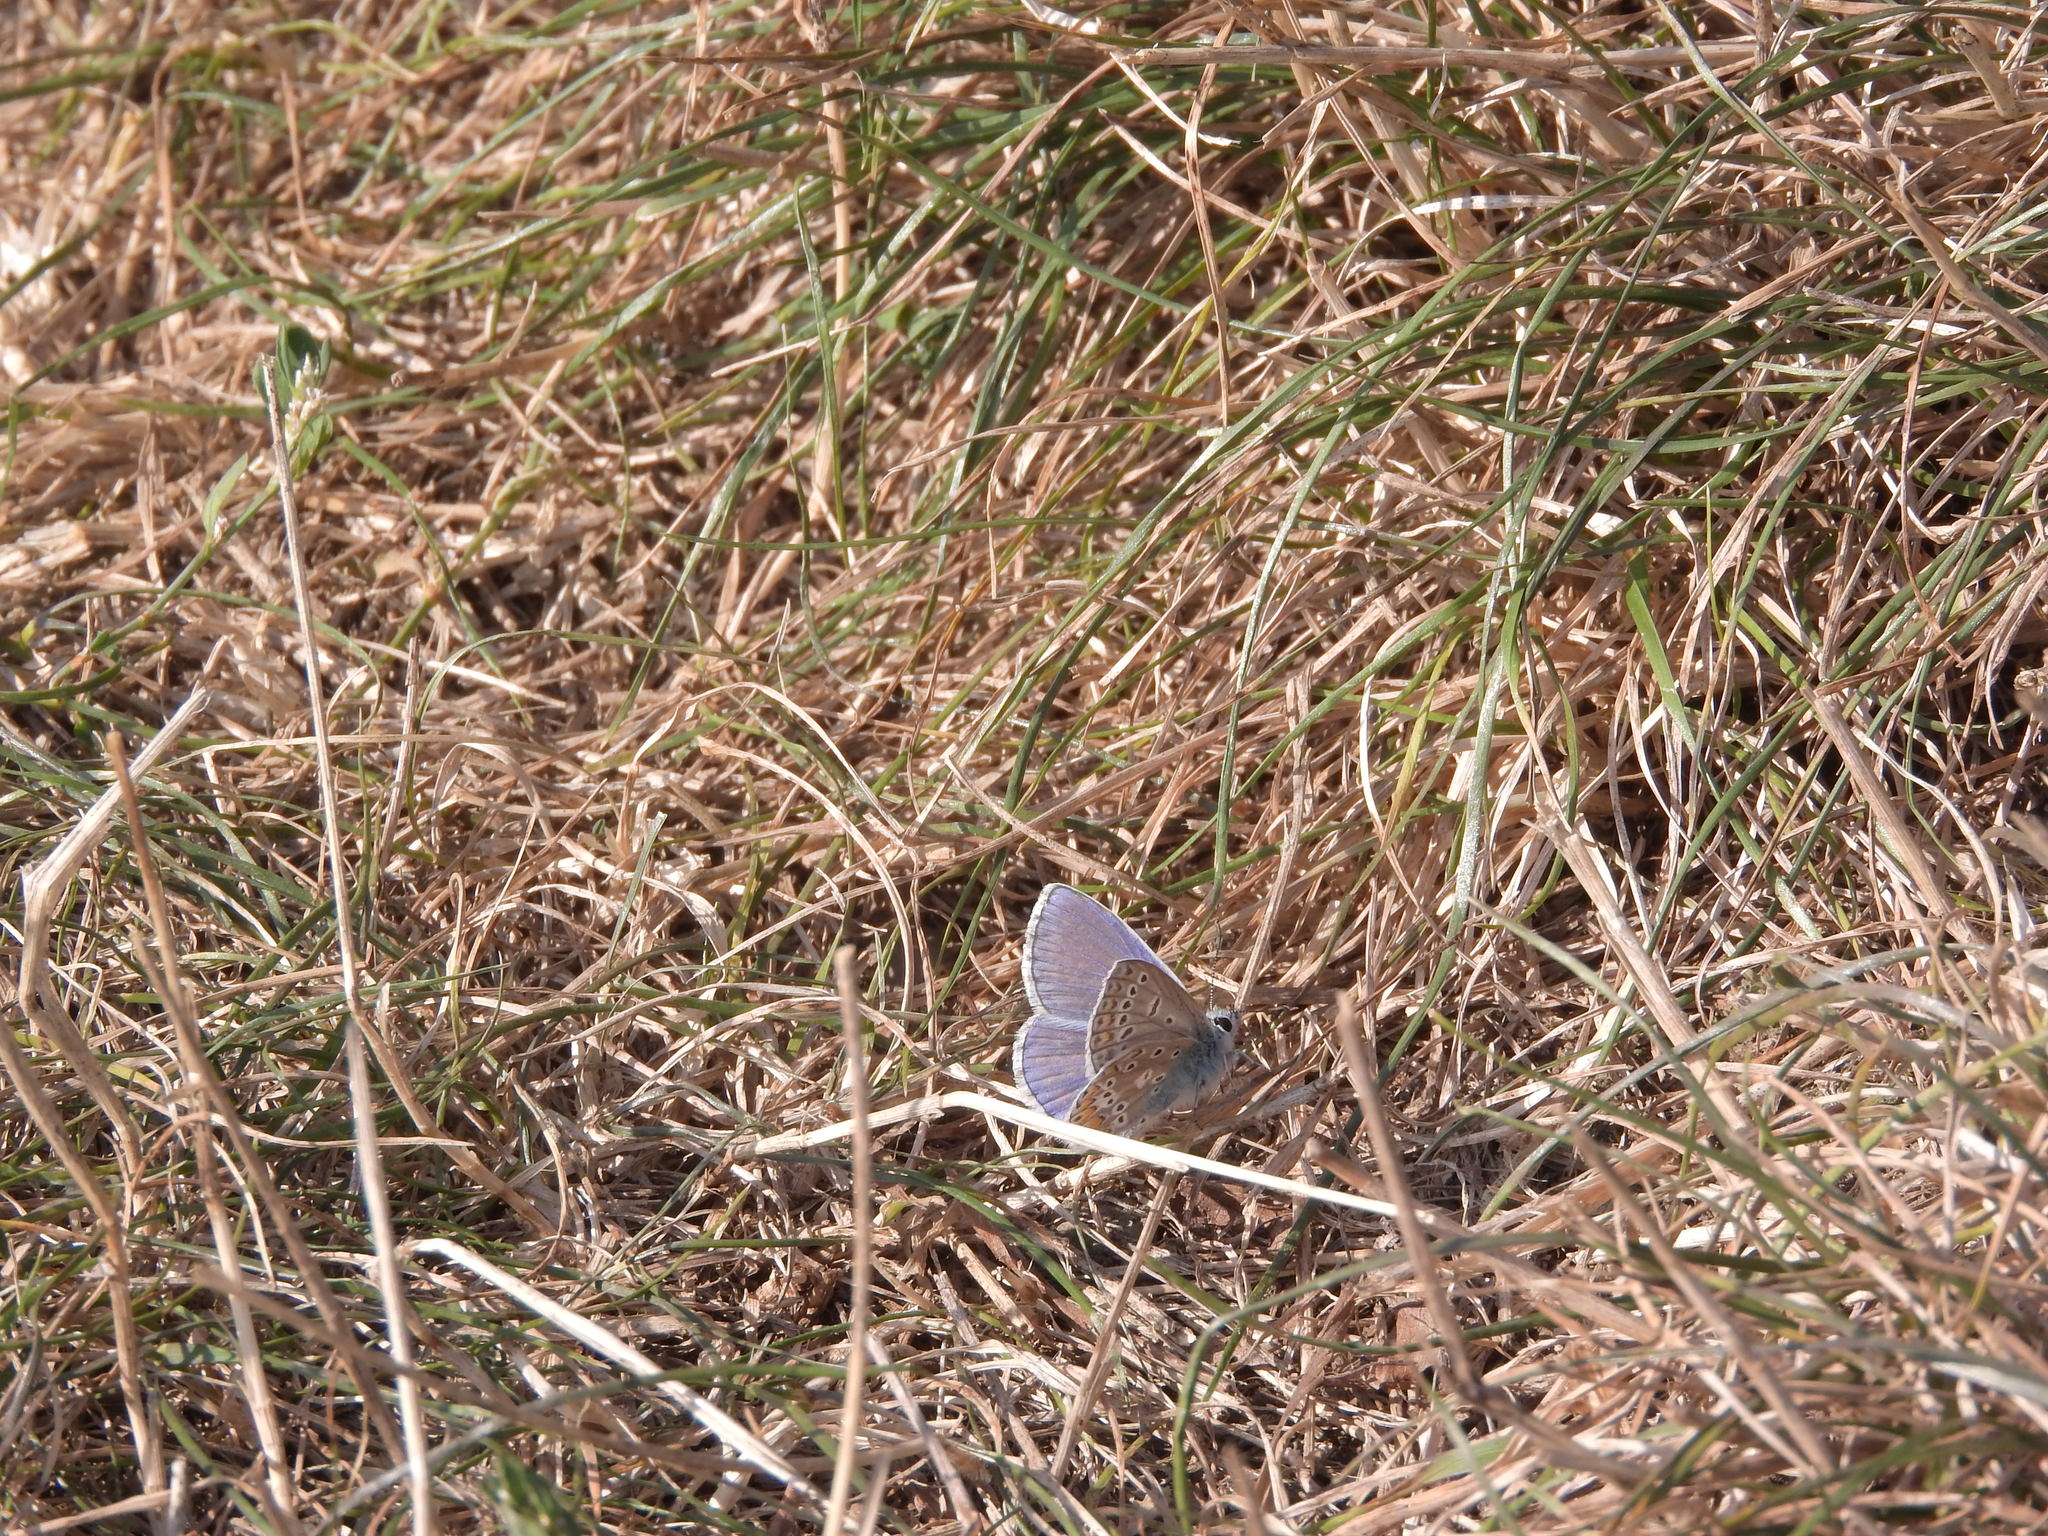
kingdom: Animalia
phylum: Arthropoda
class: Insecta
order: Lepidoptera
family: Lycaenidae
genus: Polyommatus
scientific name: Polyommatus icarus
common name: Common blue
